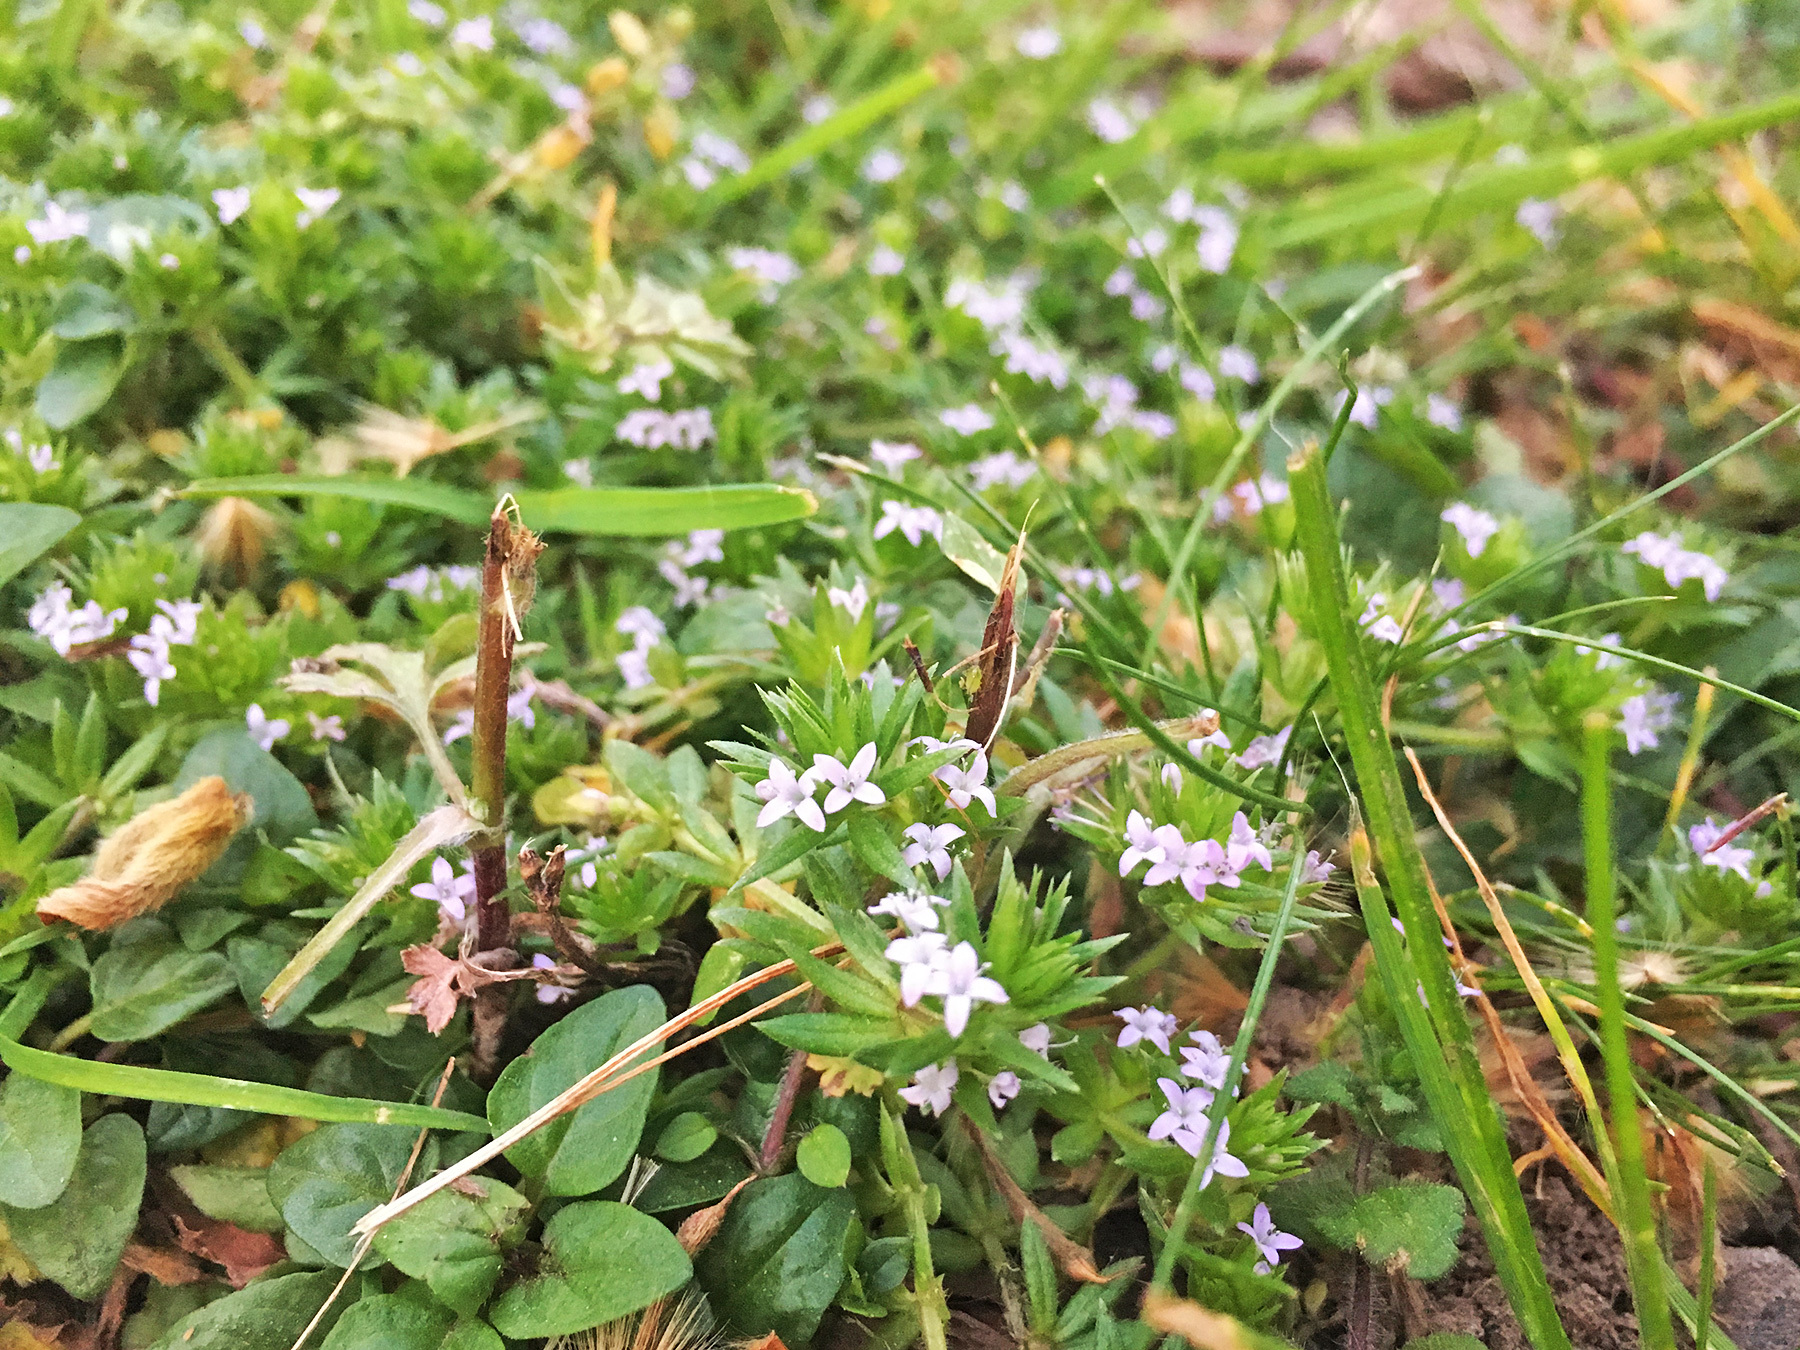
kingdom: Plantae
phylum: Tracheophyta
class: Magnoliopsida
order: Gentianales
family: Rubiaceae
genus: Sherardia
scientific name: Sherardia arvensis
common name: Field madder
